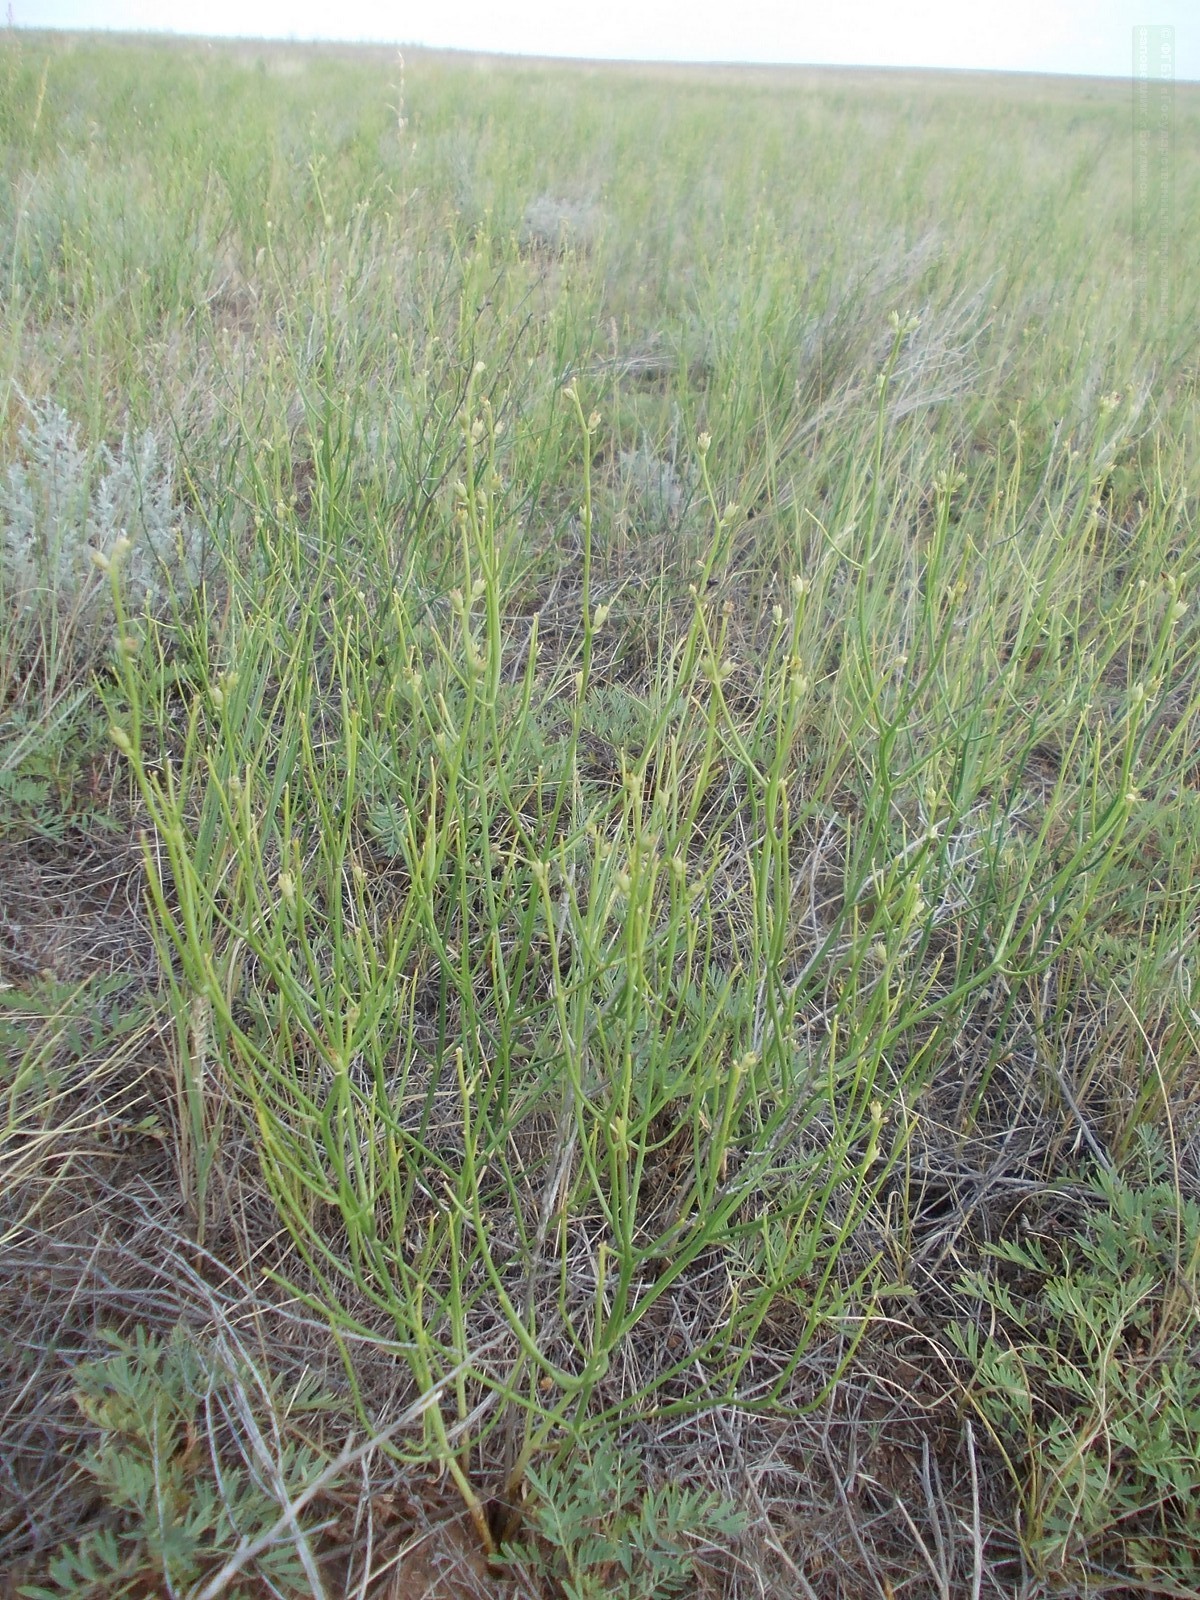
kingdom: Plantae
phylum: Tracheophyta
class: Magnoliopsida
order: Lamiales
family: Mazaceae
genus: Dodartia
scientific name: Dodartia orientalis
